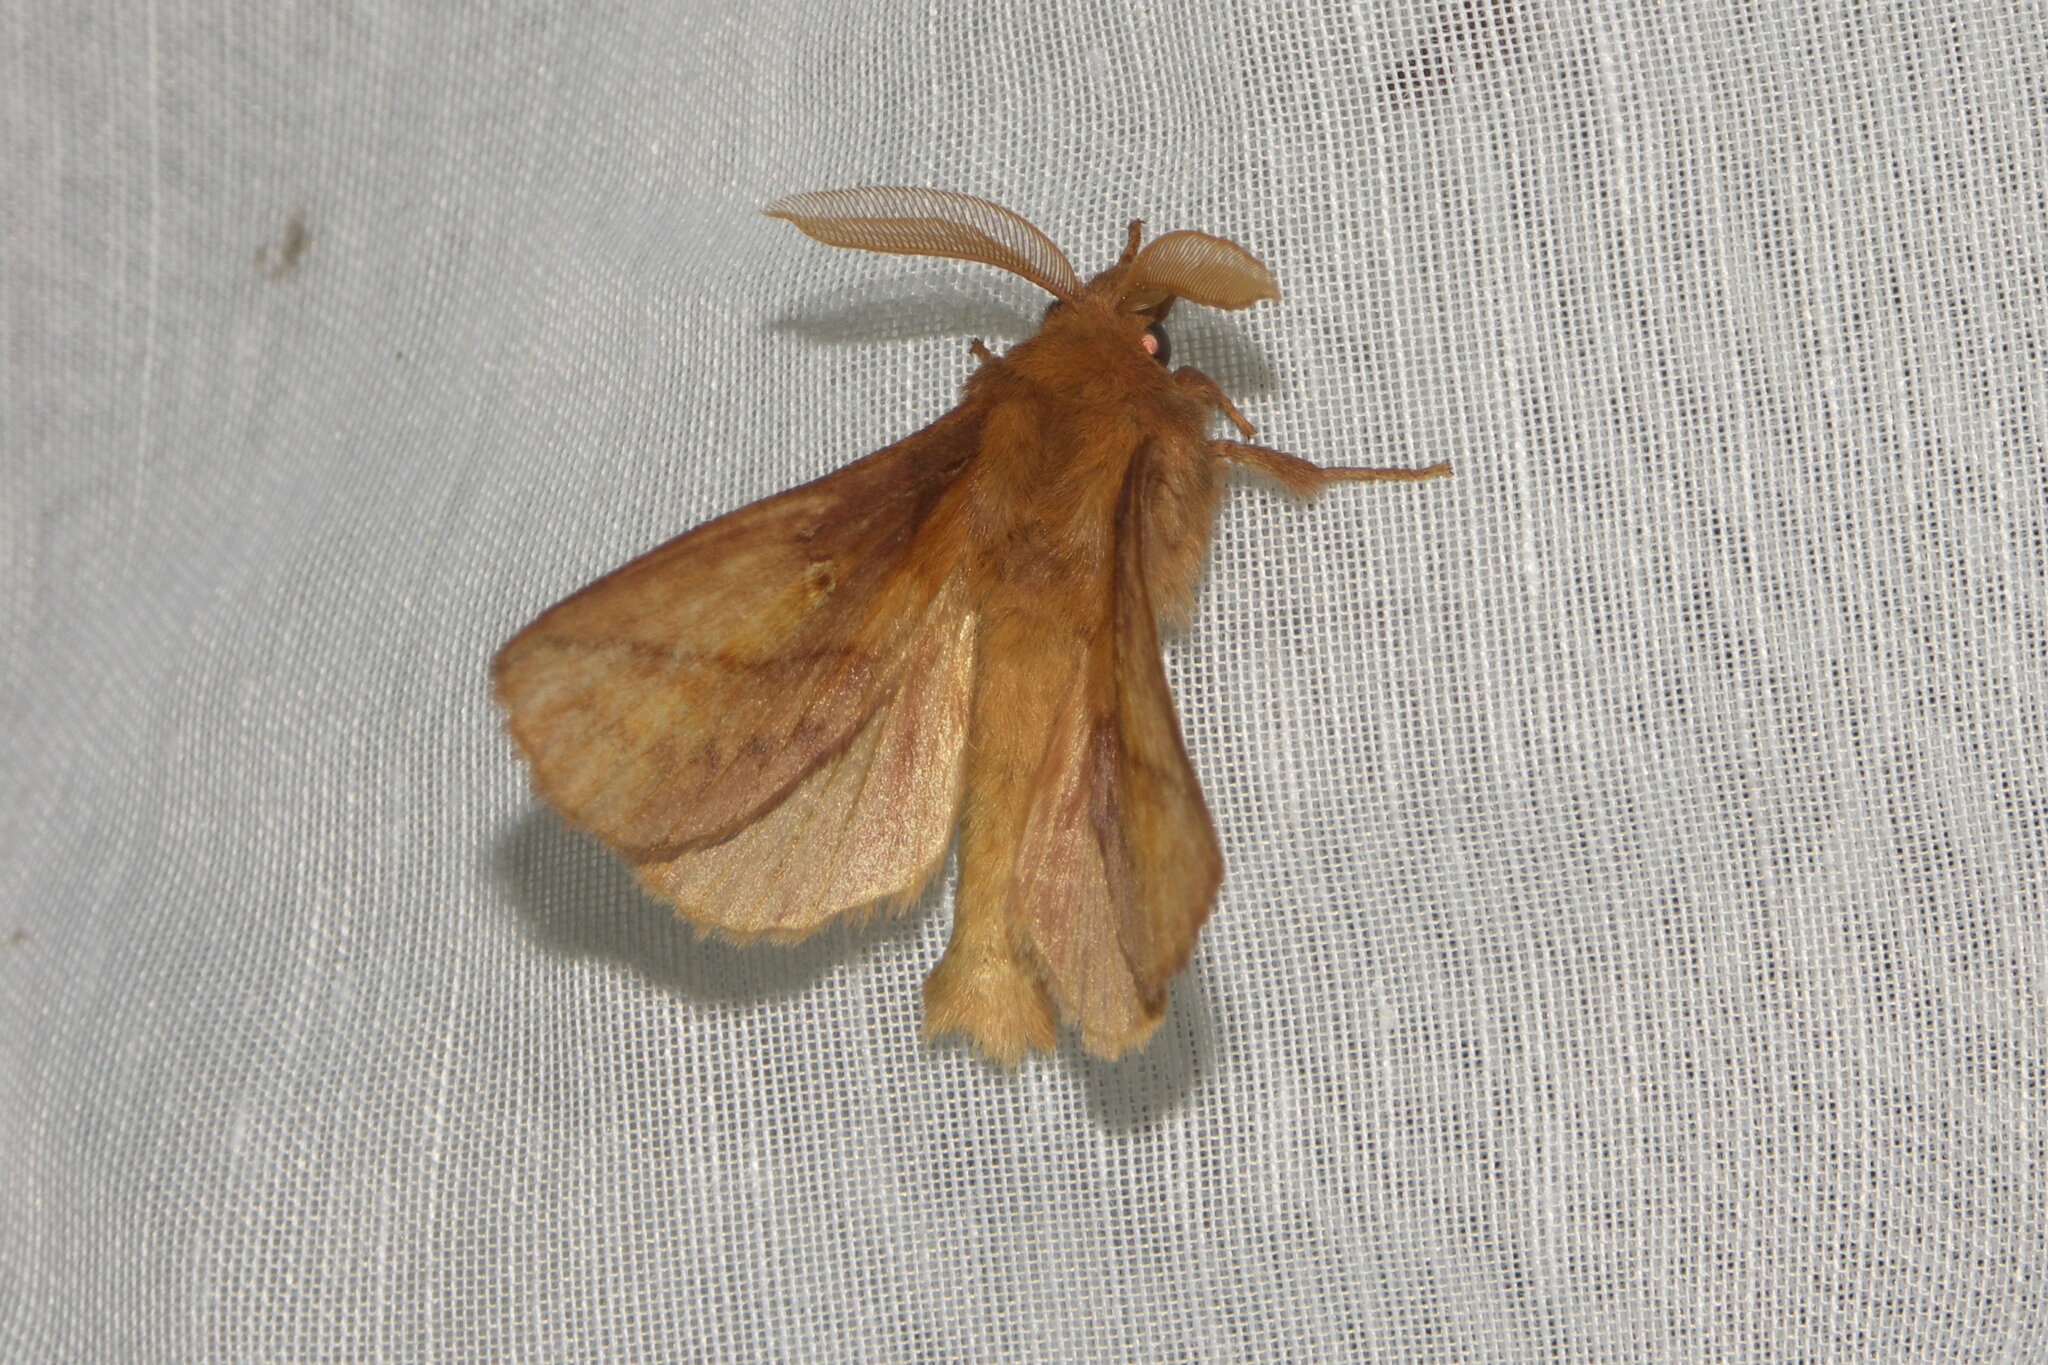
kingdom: Animalia
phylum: Arthropoda
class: Insecta
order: Lepidoptera
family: Lasiocampidae
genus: Euthrix
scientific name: Euthrix potatoria
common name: Drinker
